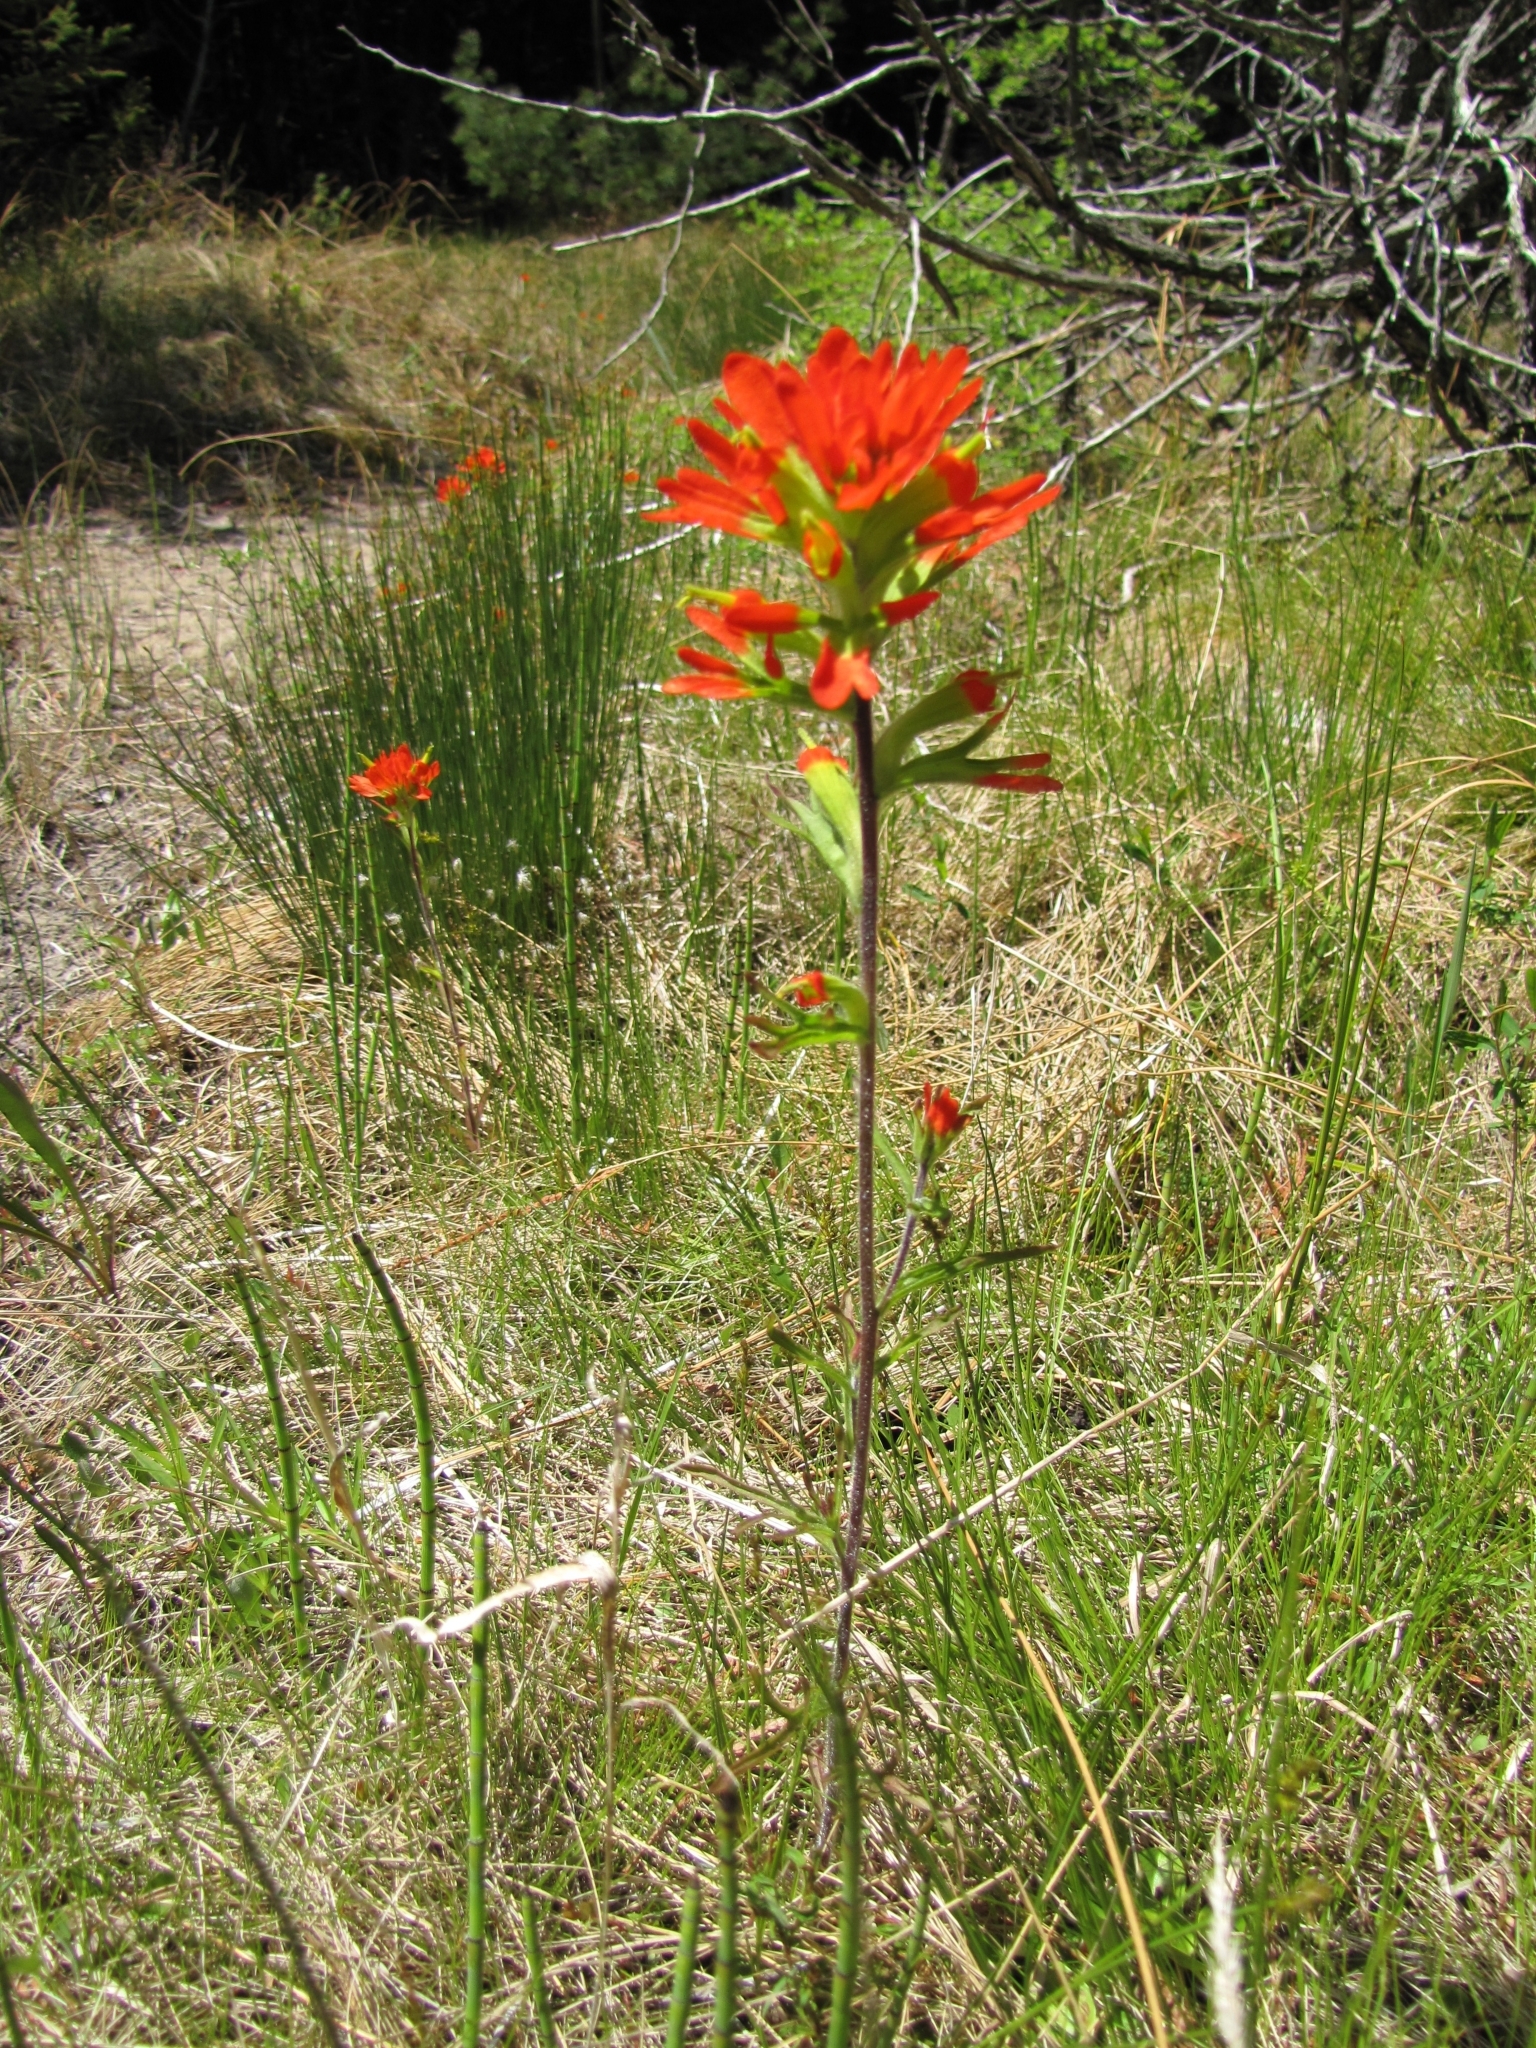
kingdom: Plantae
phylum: Tracheophyta
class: Magnoliopsida
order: Lamiales
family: Orobanchaceae
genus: Castilleja
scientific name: Castilleja coccinea
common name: Scarlet paintbrush
